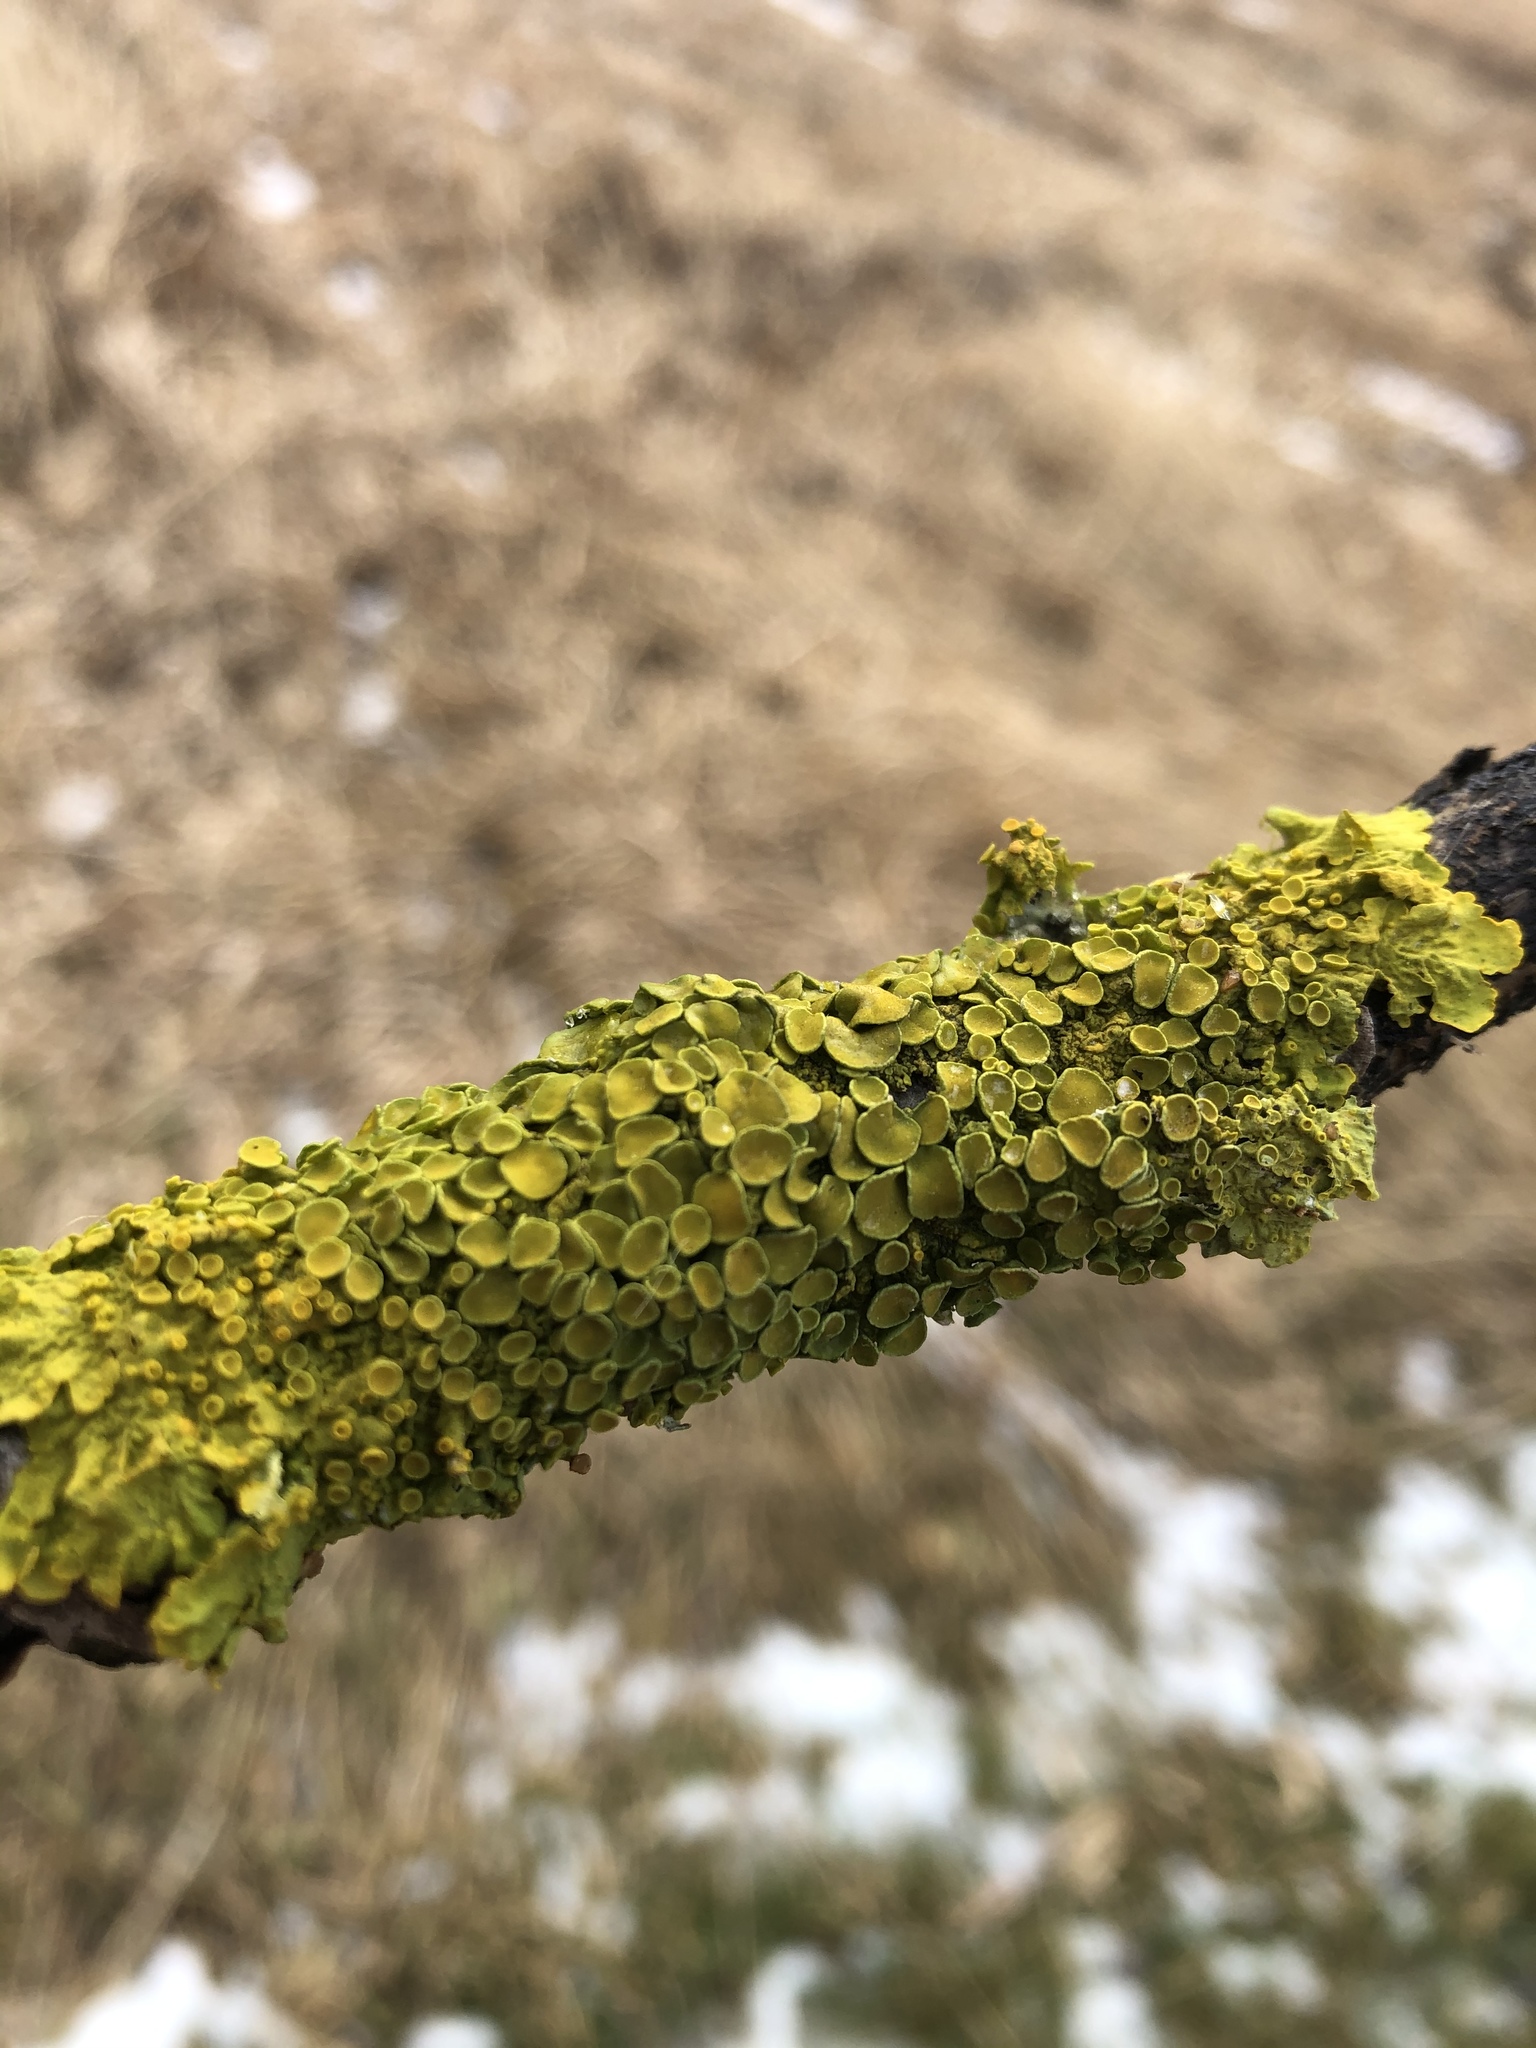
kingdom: Fungi
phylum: Ascomycota
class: Lecanoromycetes
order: Teloschistales
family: Teloschistaceae
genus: Xanthoria
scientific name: Xanthoria parietina
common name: Common orange lichen
